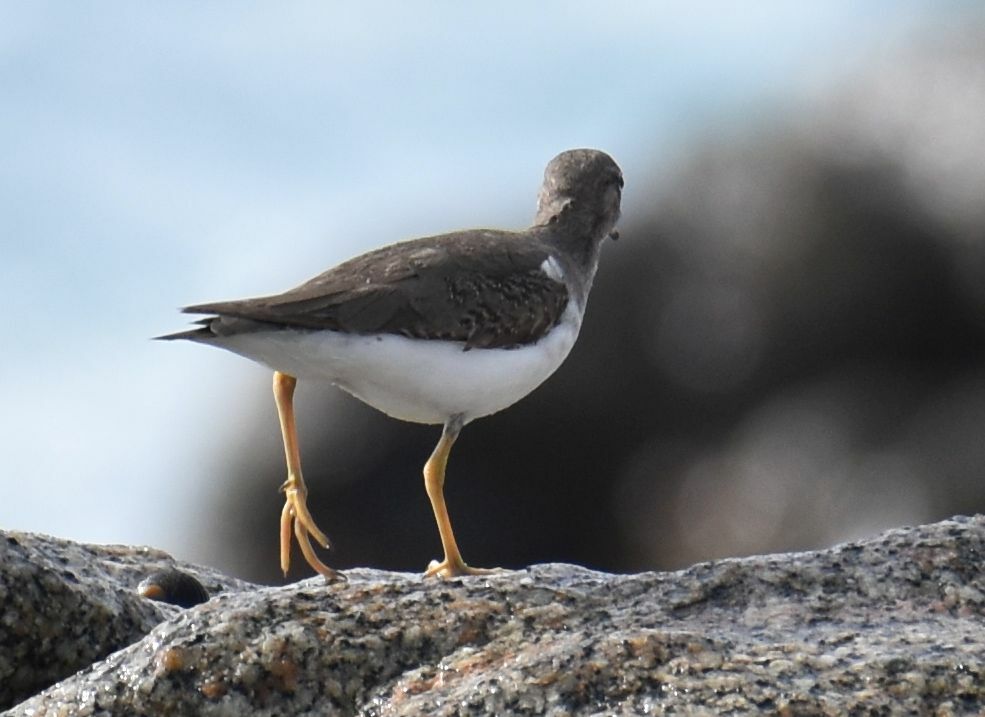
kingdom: Animalia
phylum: Chordata
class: Aves
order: Charadriiformes
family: Scolopacidae
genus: Actitis
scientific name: Actitis macularius
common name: Spotted sandpiper
